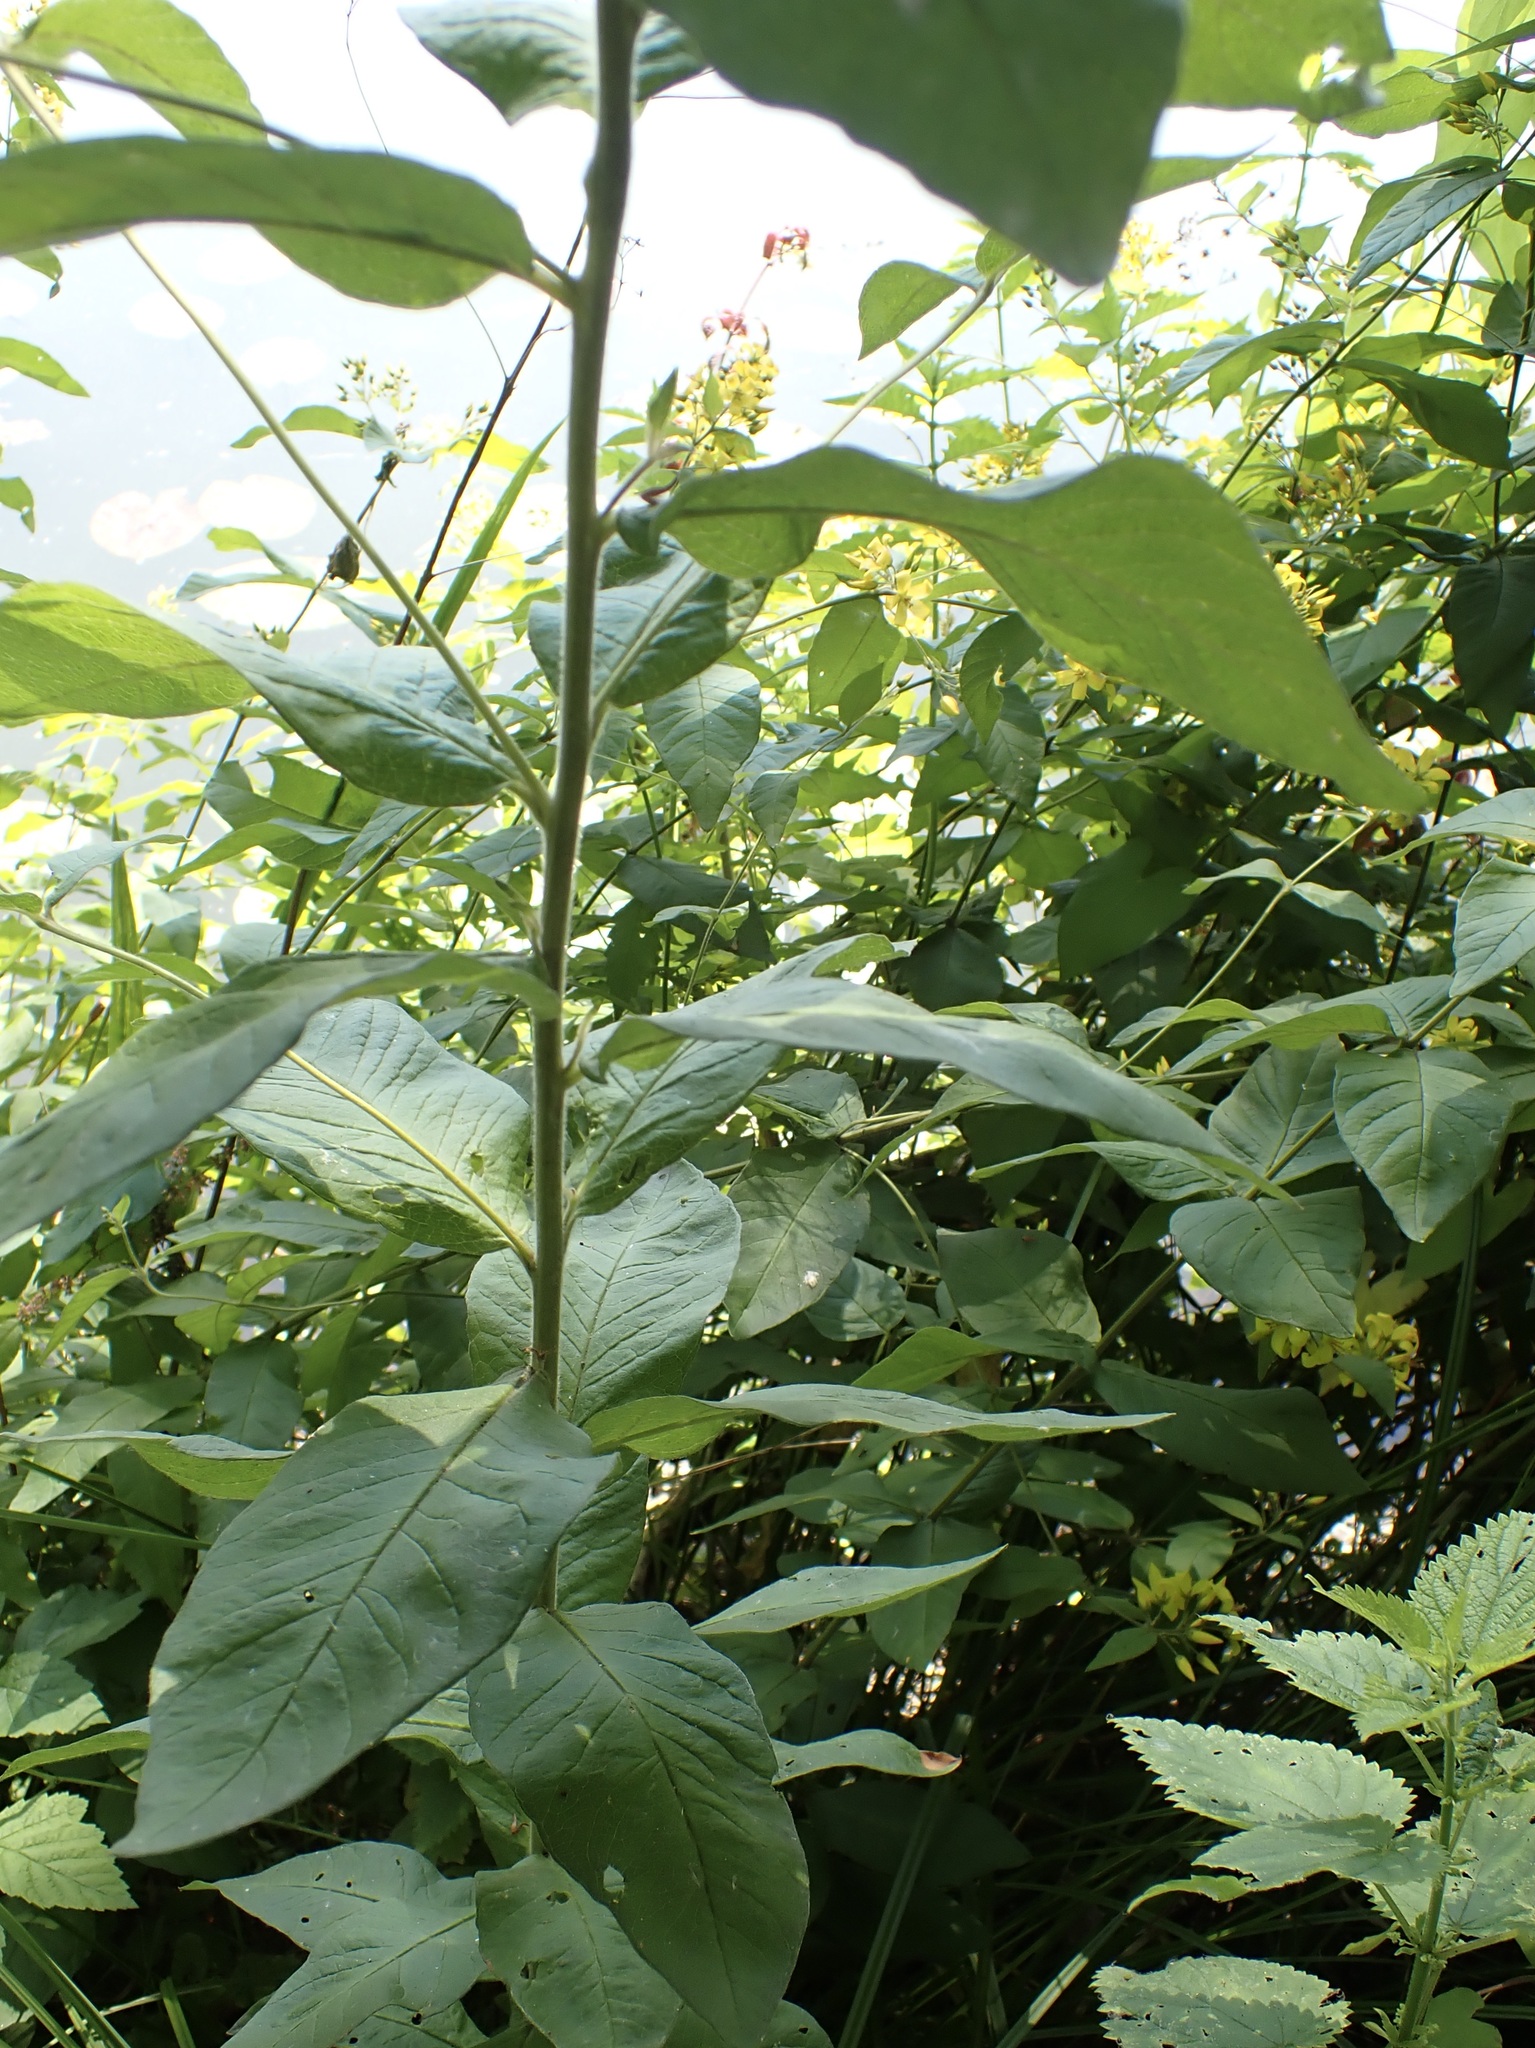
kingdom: Plantae
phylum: Tracheophyta
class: Magnoliopsida
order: Ericales
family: Primulaceae
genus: Lysimachia
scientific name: Lysimachia vulgaris
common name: Yellow loosestrife
